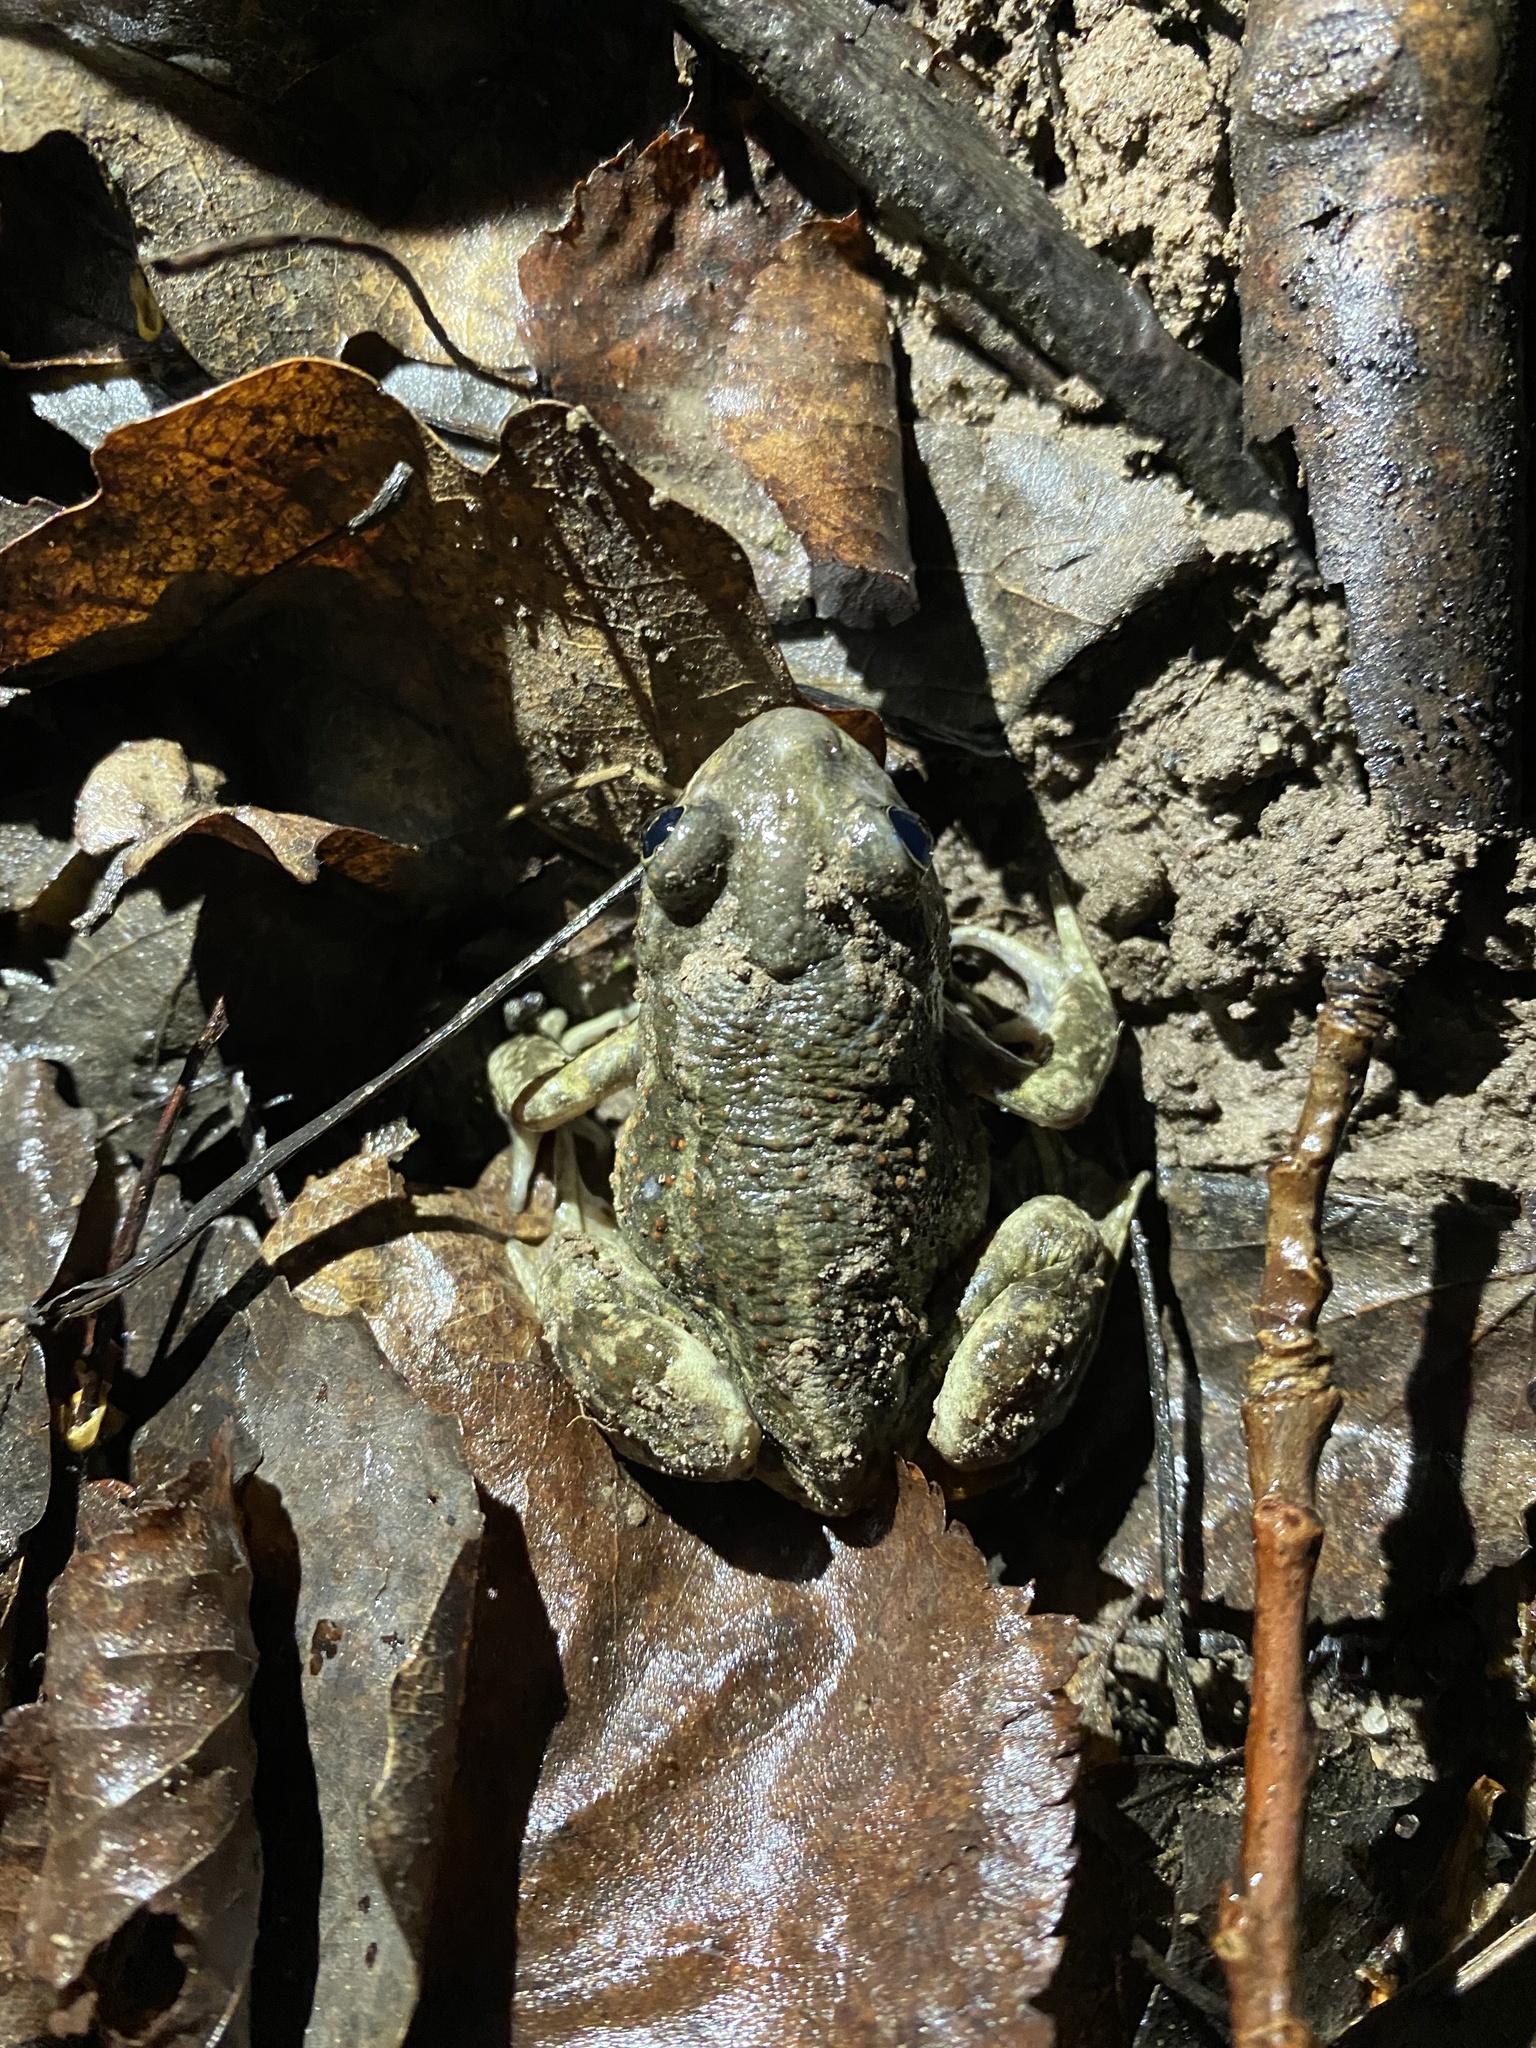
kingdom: Animalia
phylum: Chordata
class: Amphibia
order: Anura
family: Pelobatidae
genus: Pelobates
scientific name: Pelobates vespertinus
